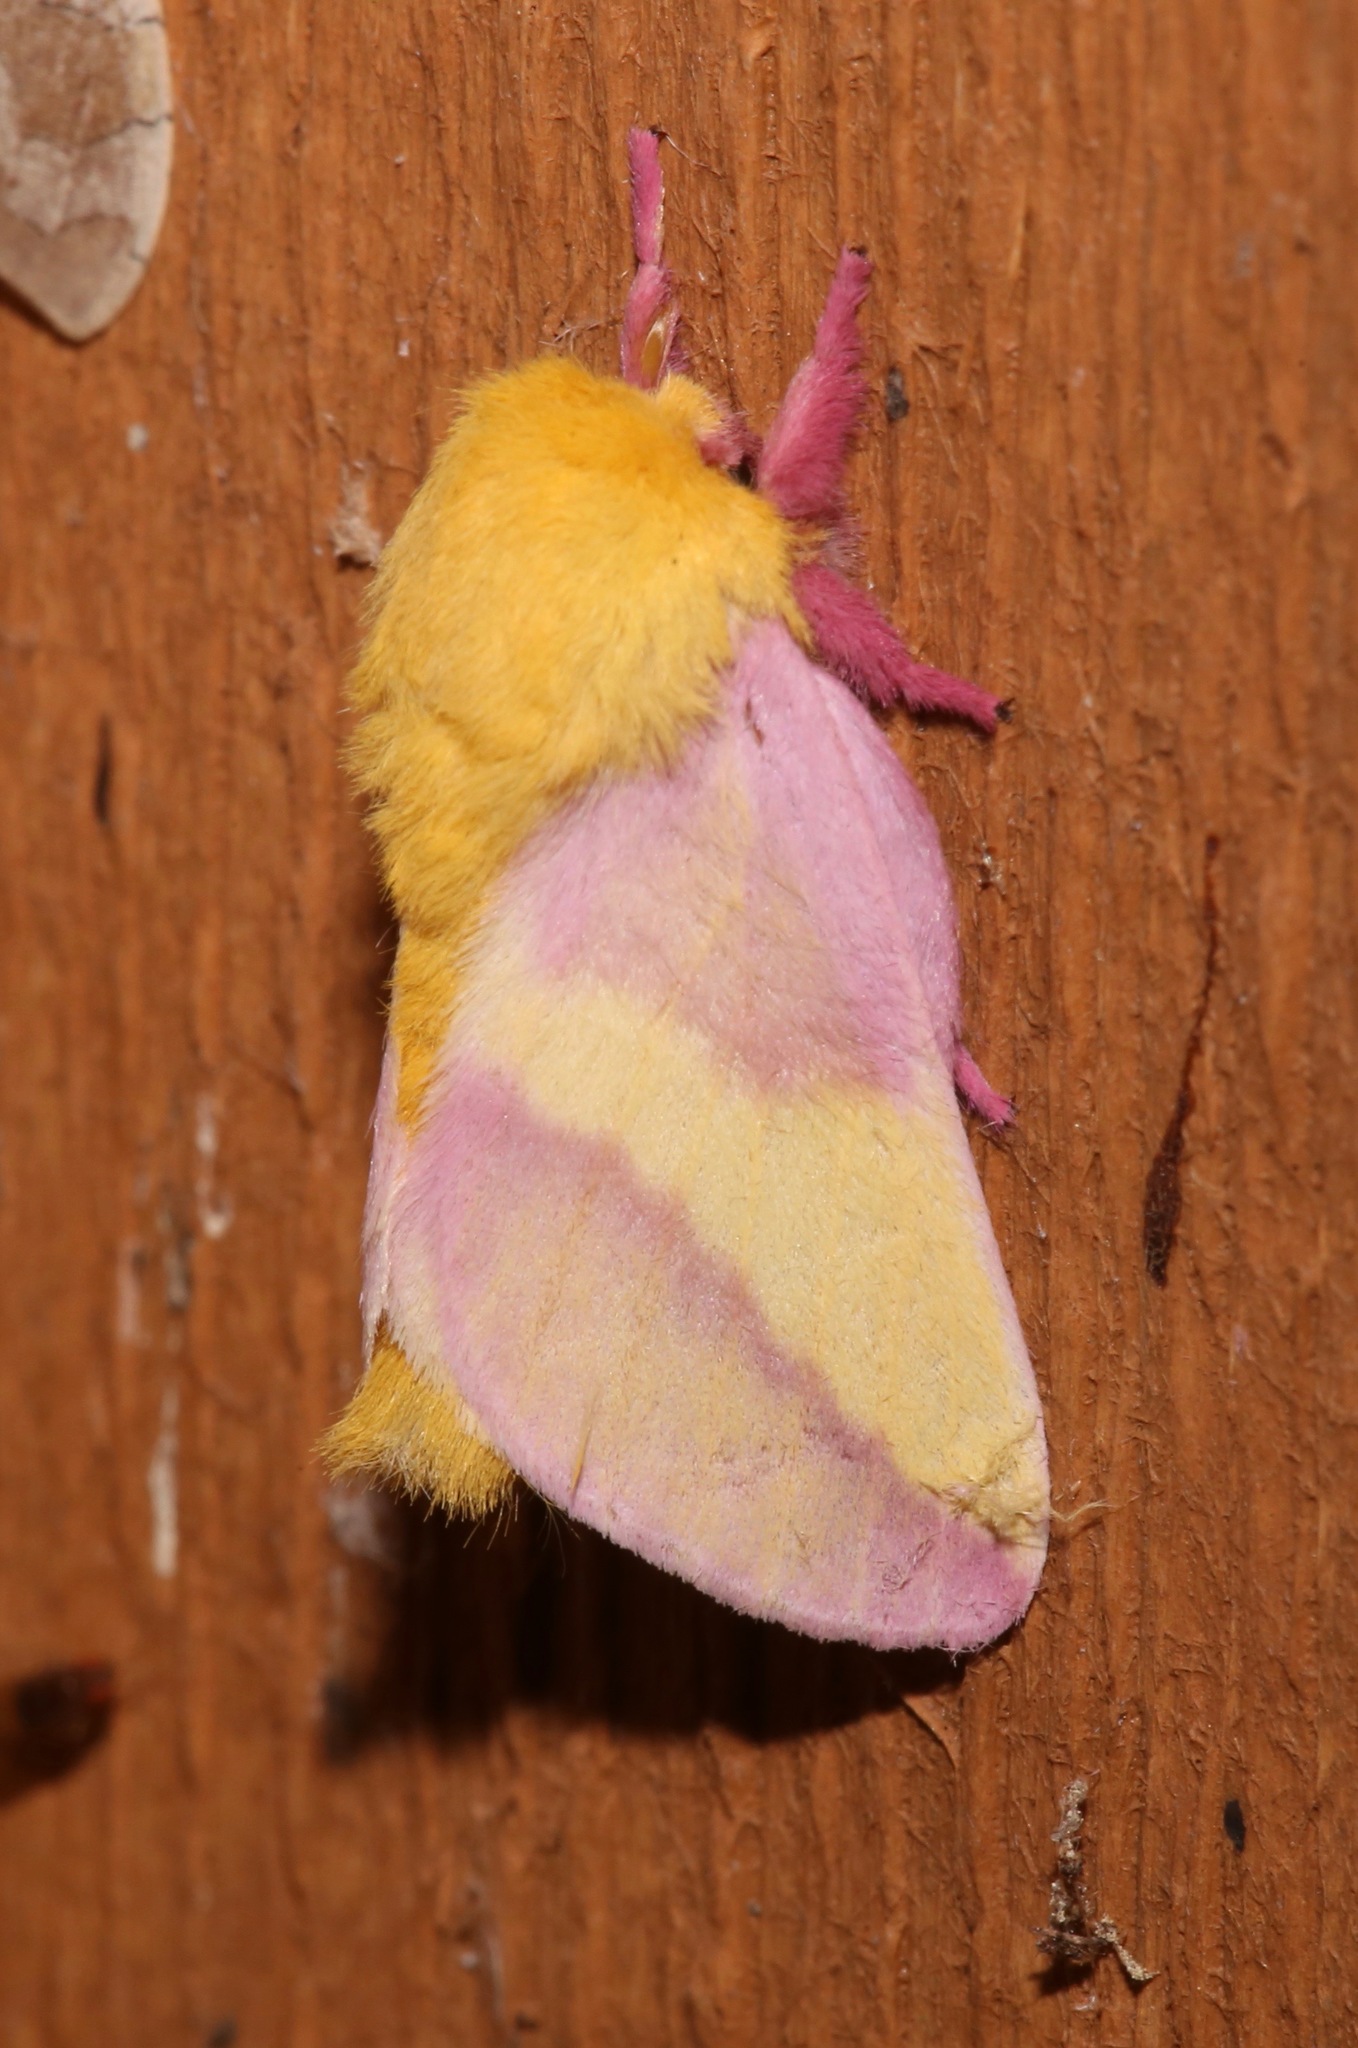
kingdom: Animalia
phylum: Arthropoda
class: Insecta
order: Lepidoptera
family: Saturniidae
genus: Dryocampa
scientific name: Dryocampa rubicunda
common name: Rosy maple moth
